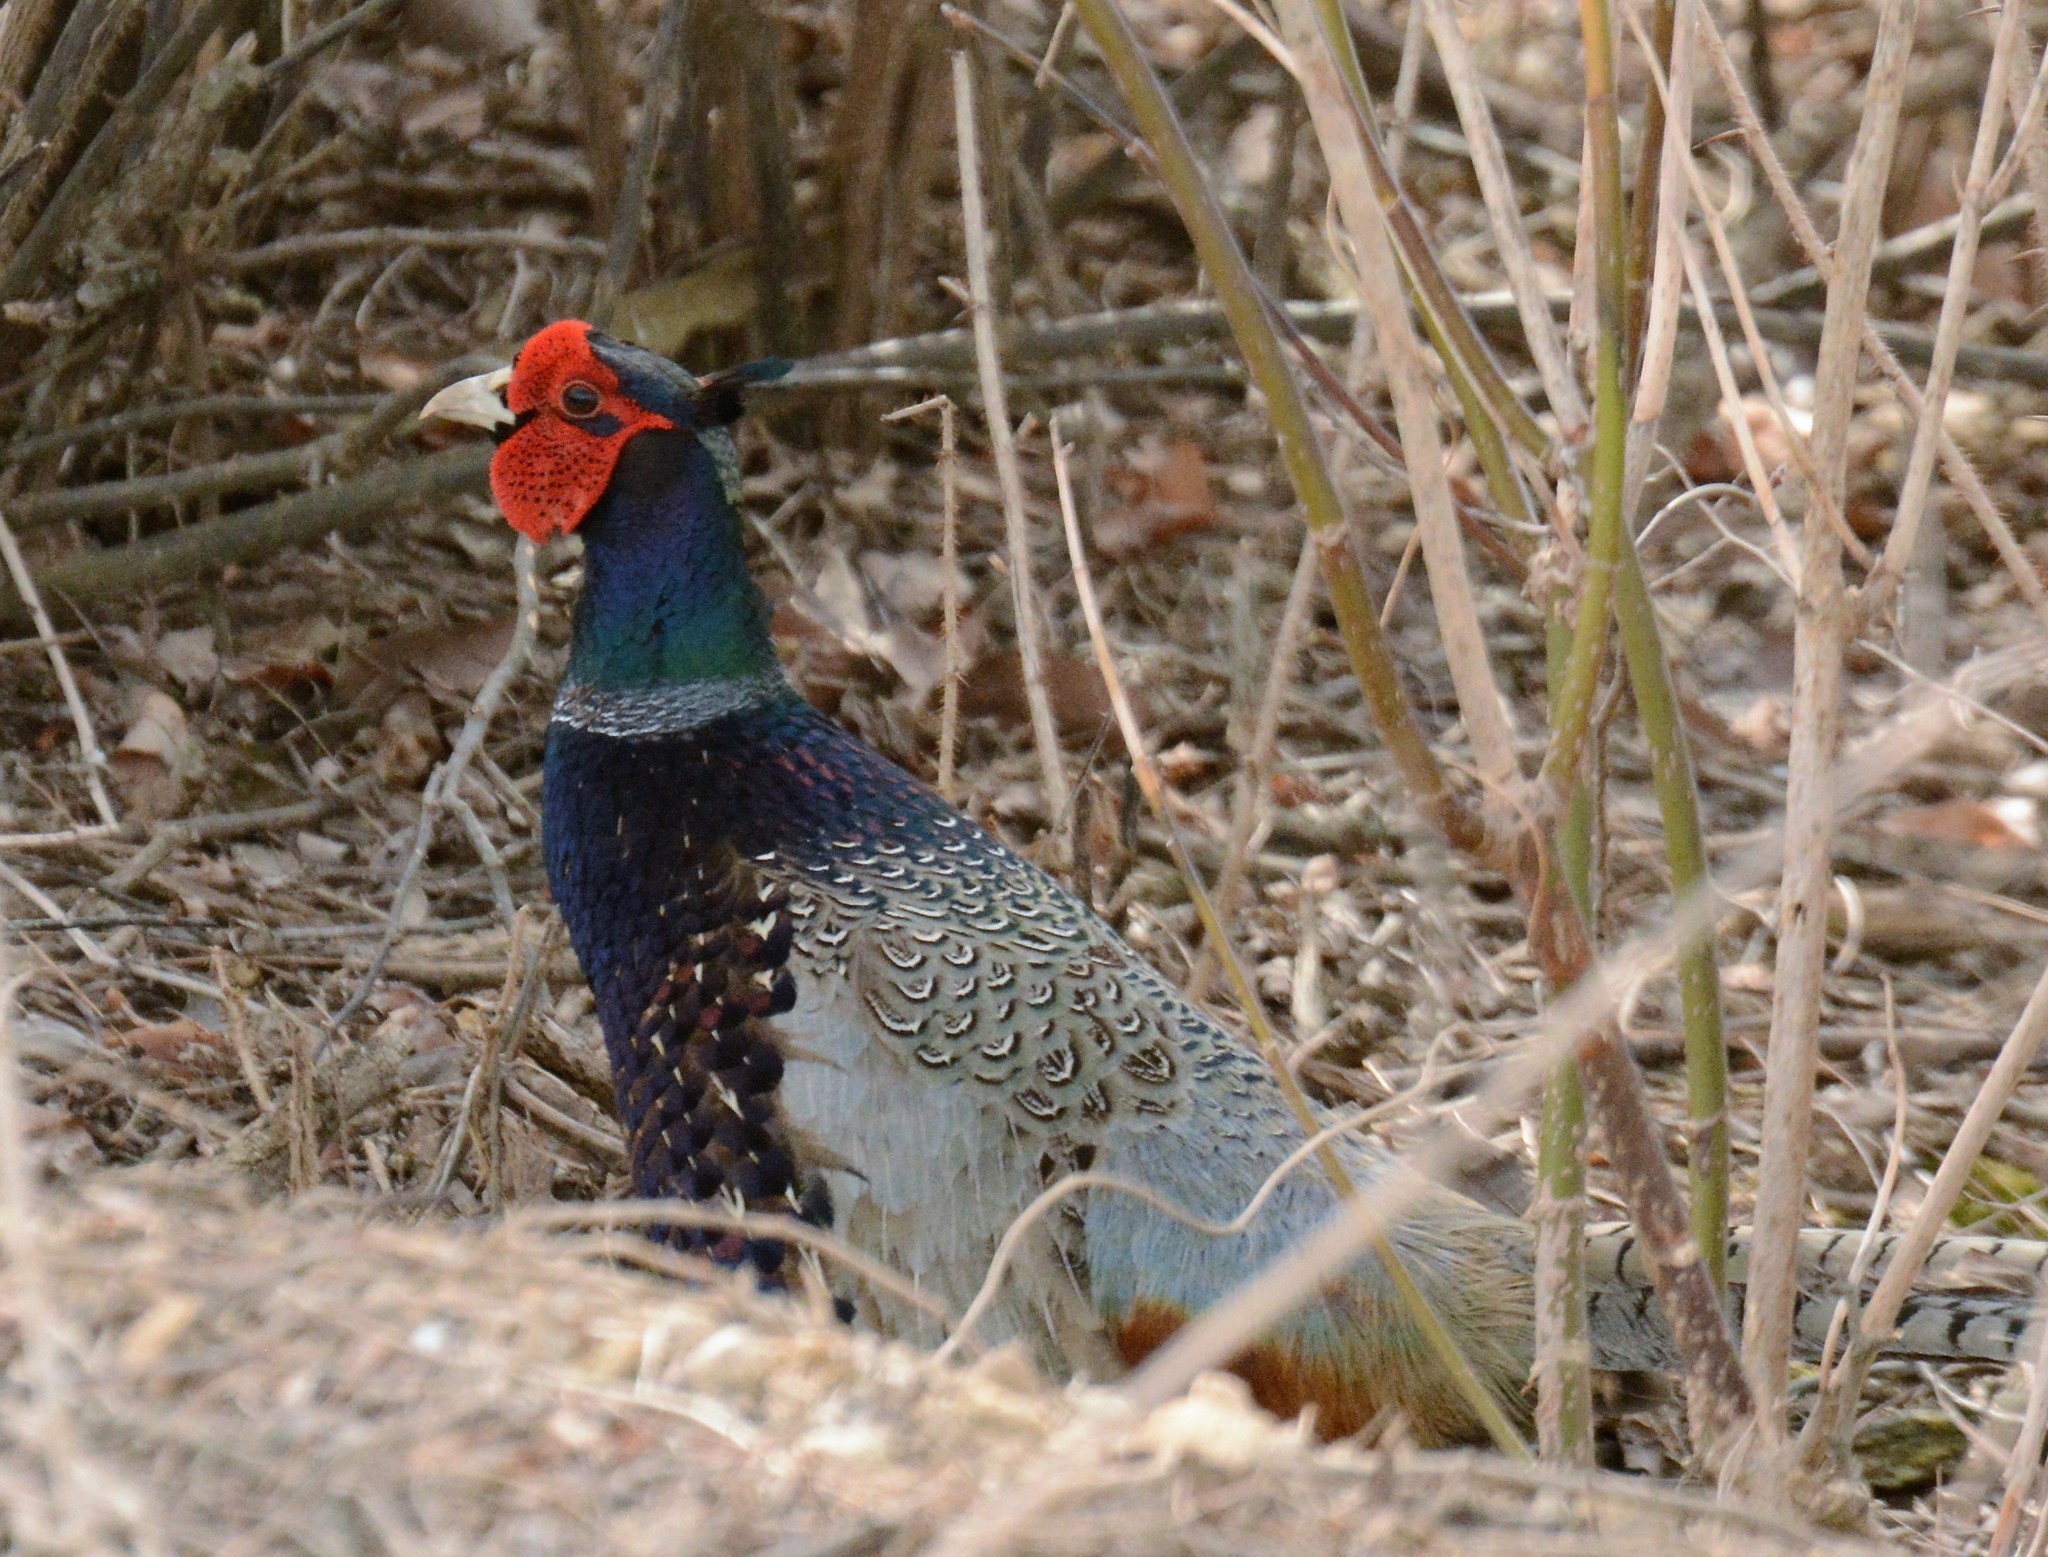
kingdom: Animalia
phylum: Chordata
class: Aves
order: Galliformes
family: Phasianidae
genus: Phasianus
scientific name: Phasianus colchicus
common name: Common pheasant
